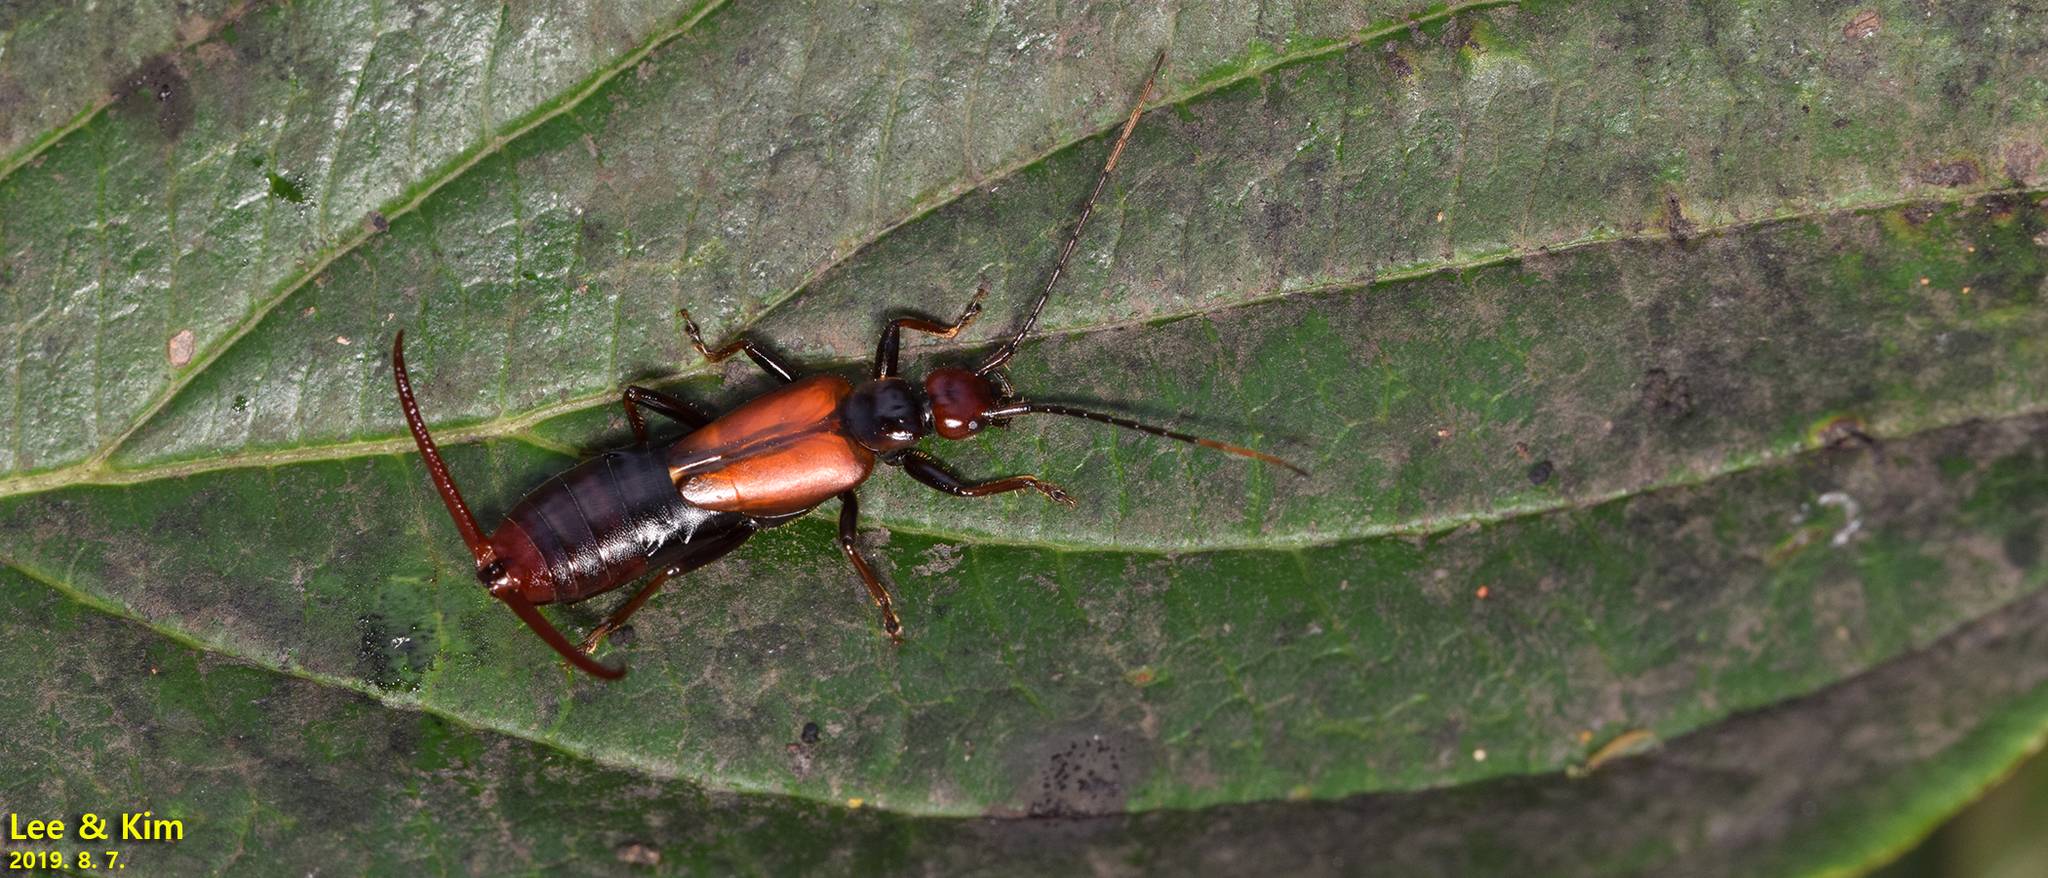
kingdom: Animalia
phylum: Arthropoda
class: Insecta
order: Dermaptera
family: Forficulidae
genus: Timomenus
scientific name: Timomenus komarovi
